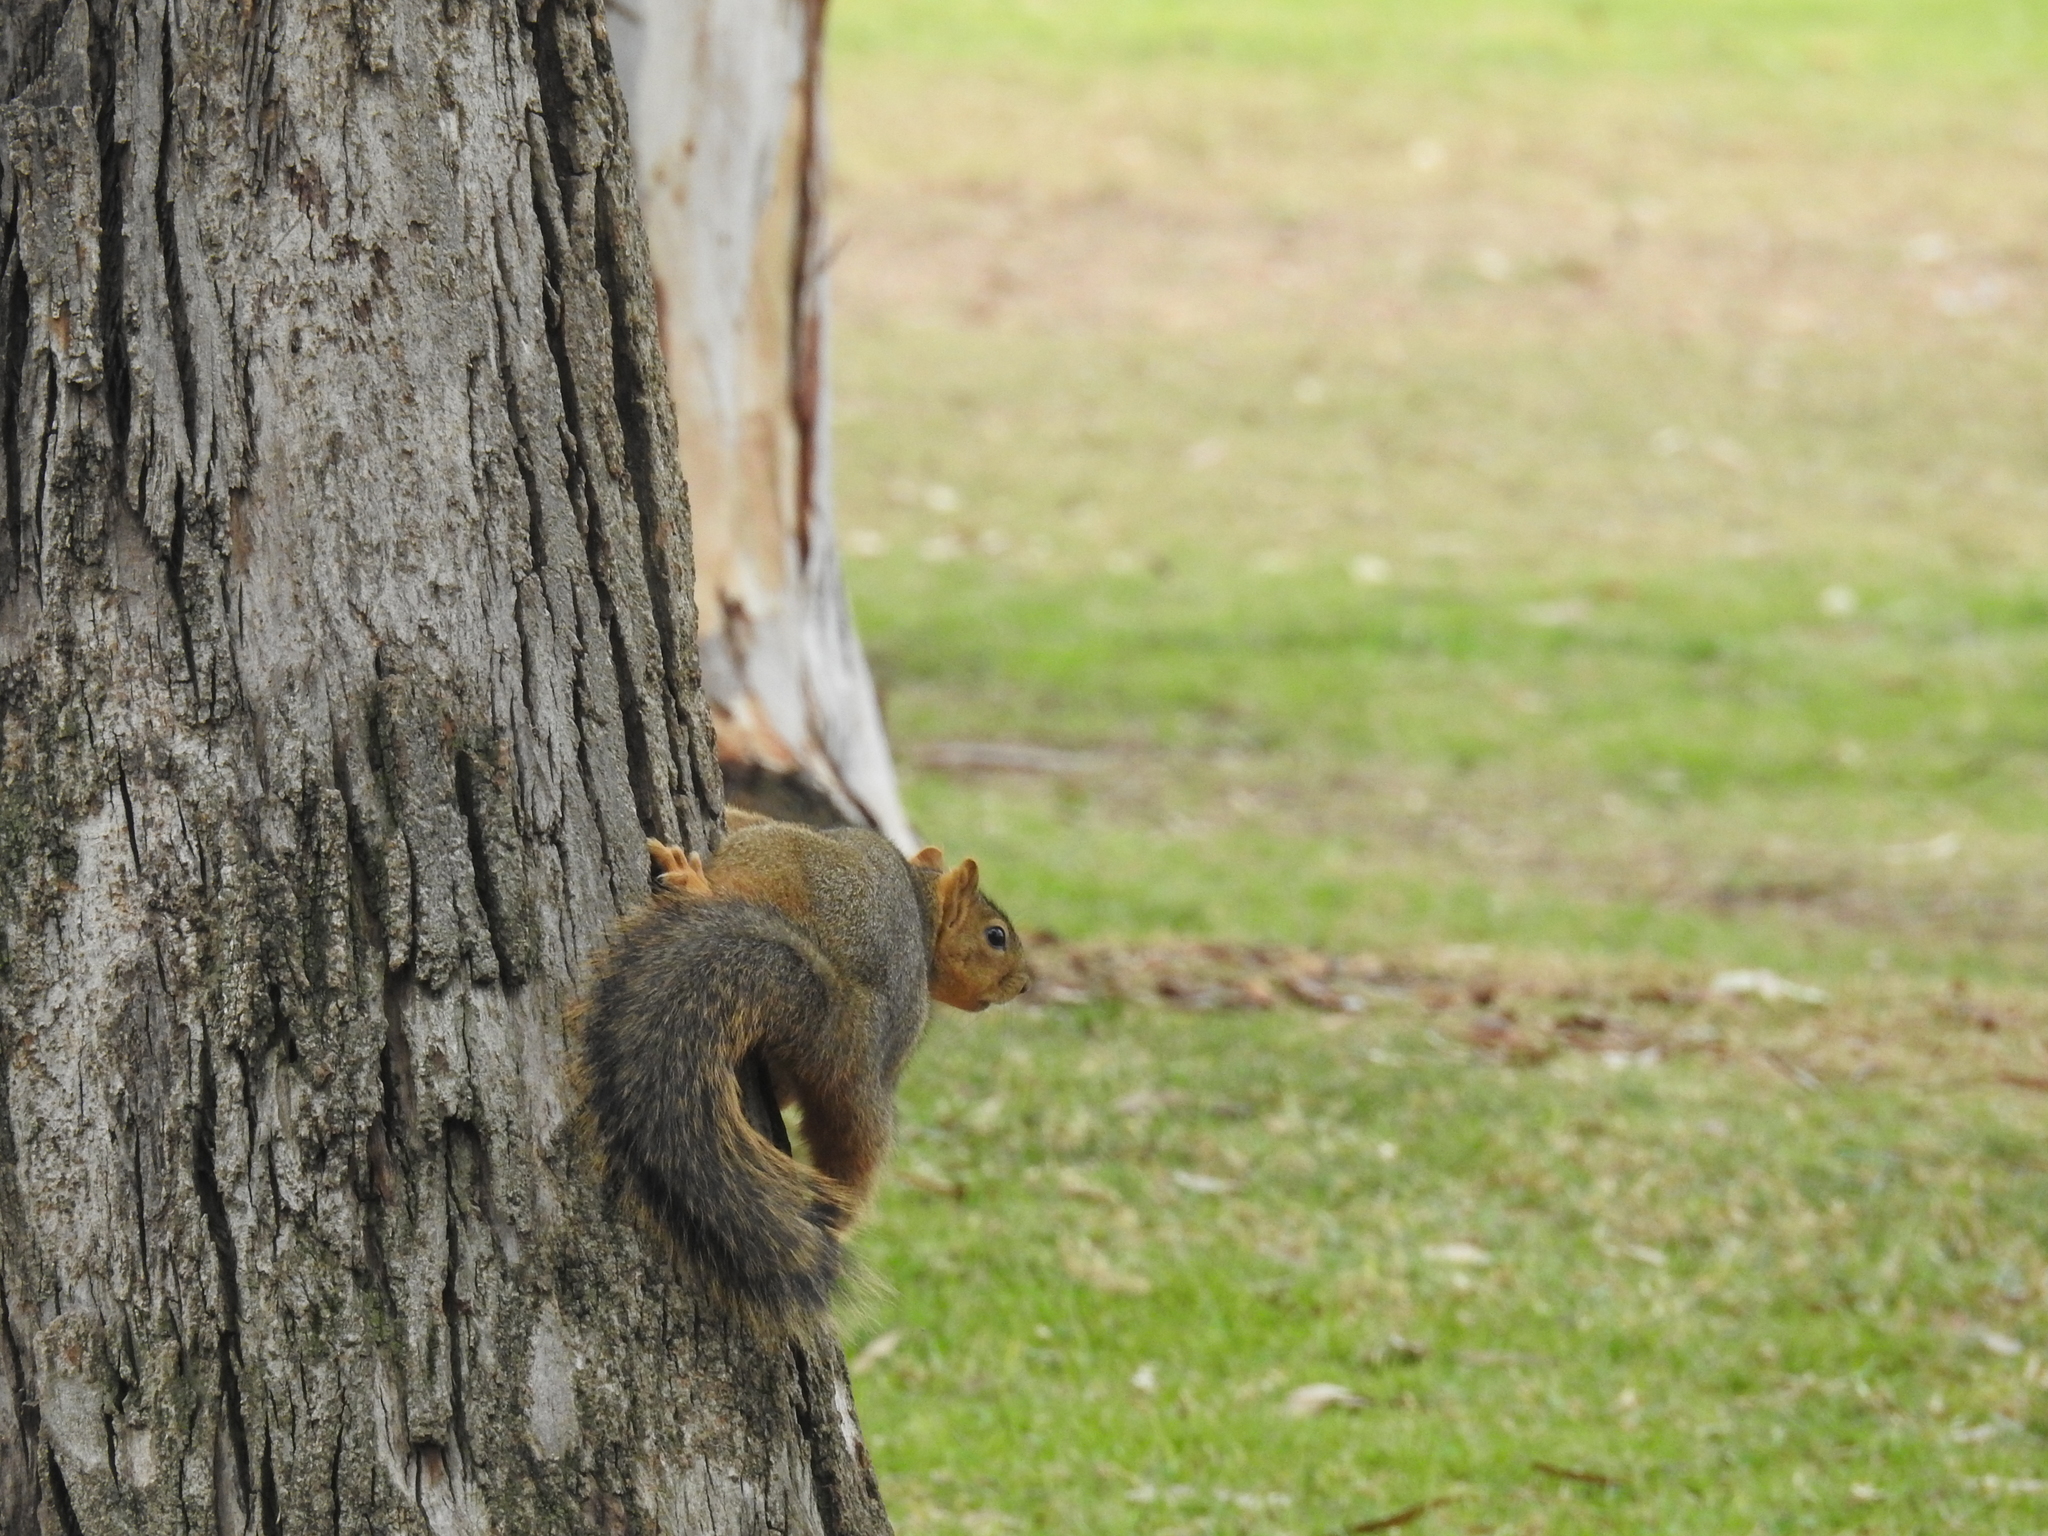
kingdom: Animalia
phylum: Chordata
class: Mammalia
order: Rodentia
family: Sciuridae
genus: Sciurus
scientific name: Sciurus niger
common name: Fox squirrel
